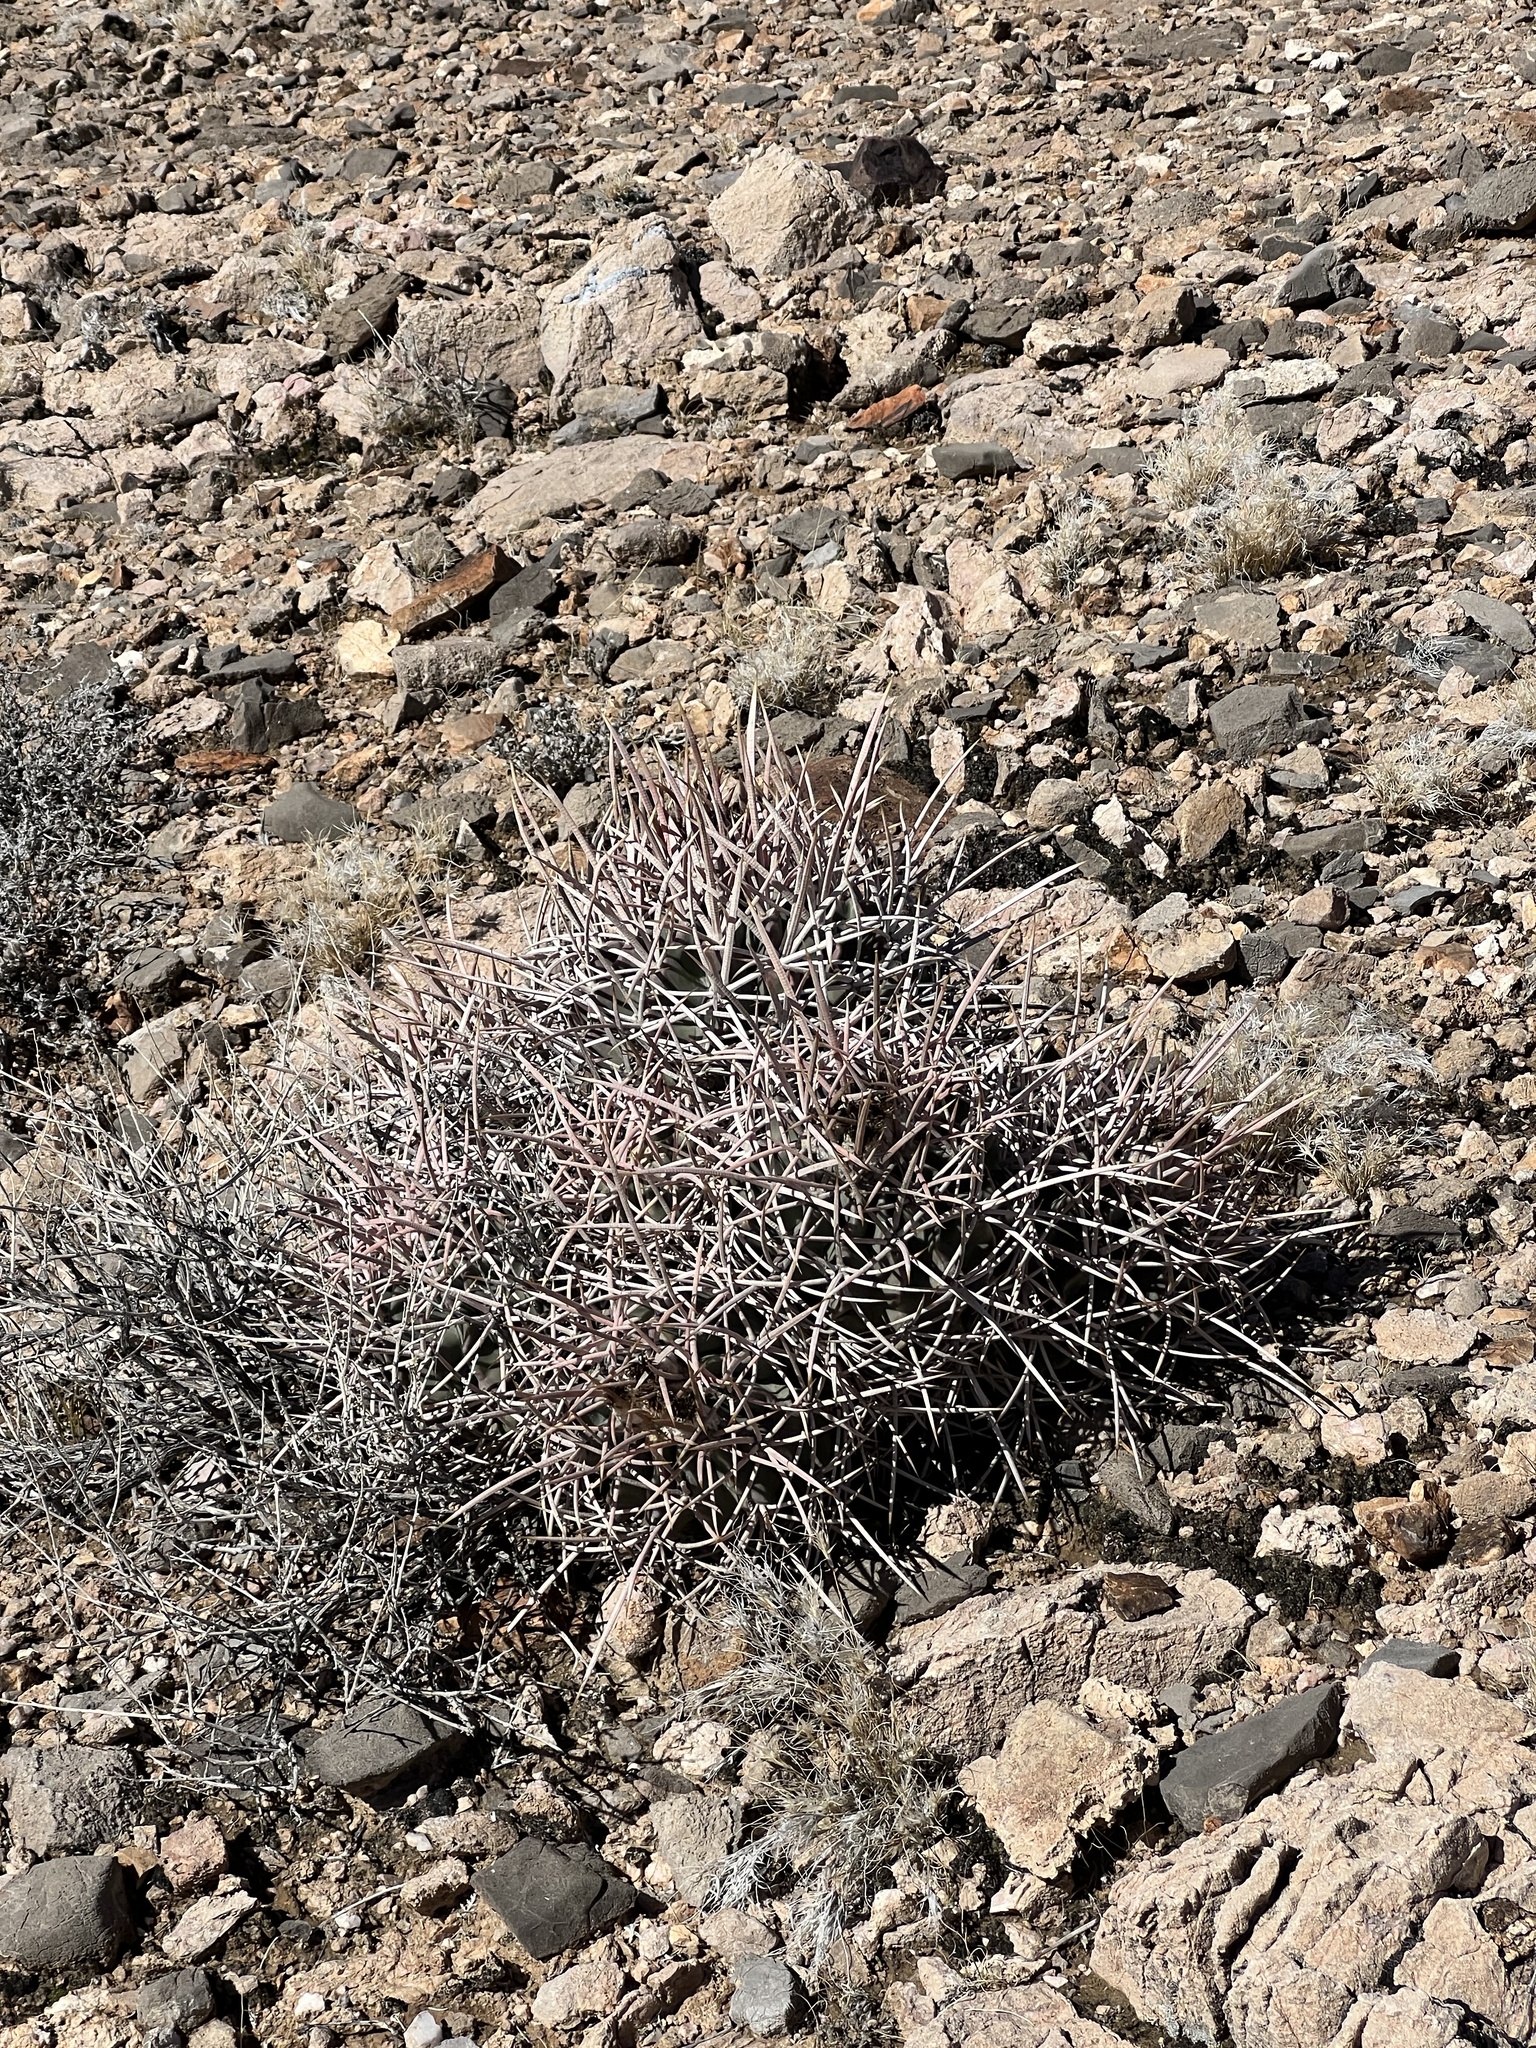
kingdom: Plantae
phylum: Tracheophyta
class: Magnoliopsida
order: Caryophyllales
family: Cactaceae
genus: Echinocactus
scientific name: Echinocactus polycephalus
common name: Cottontop cactus
